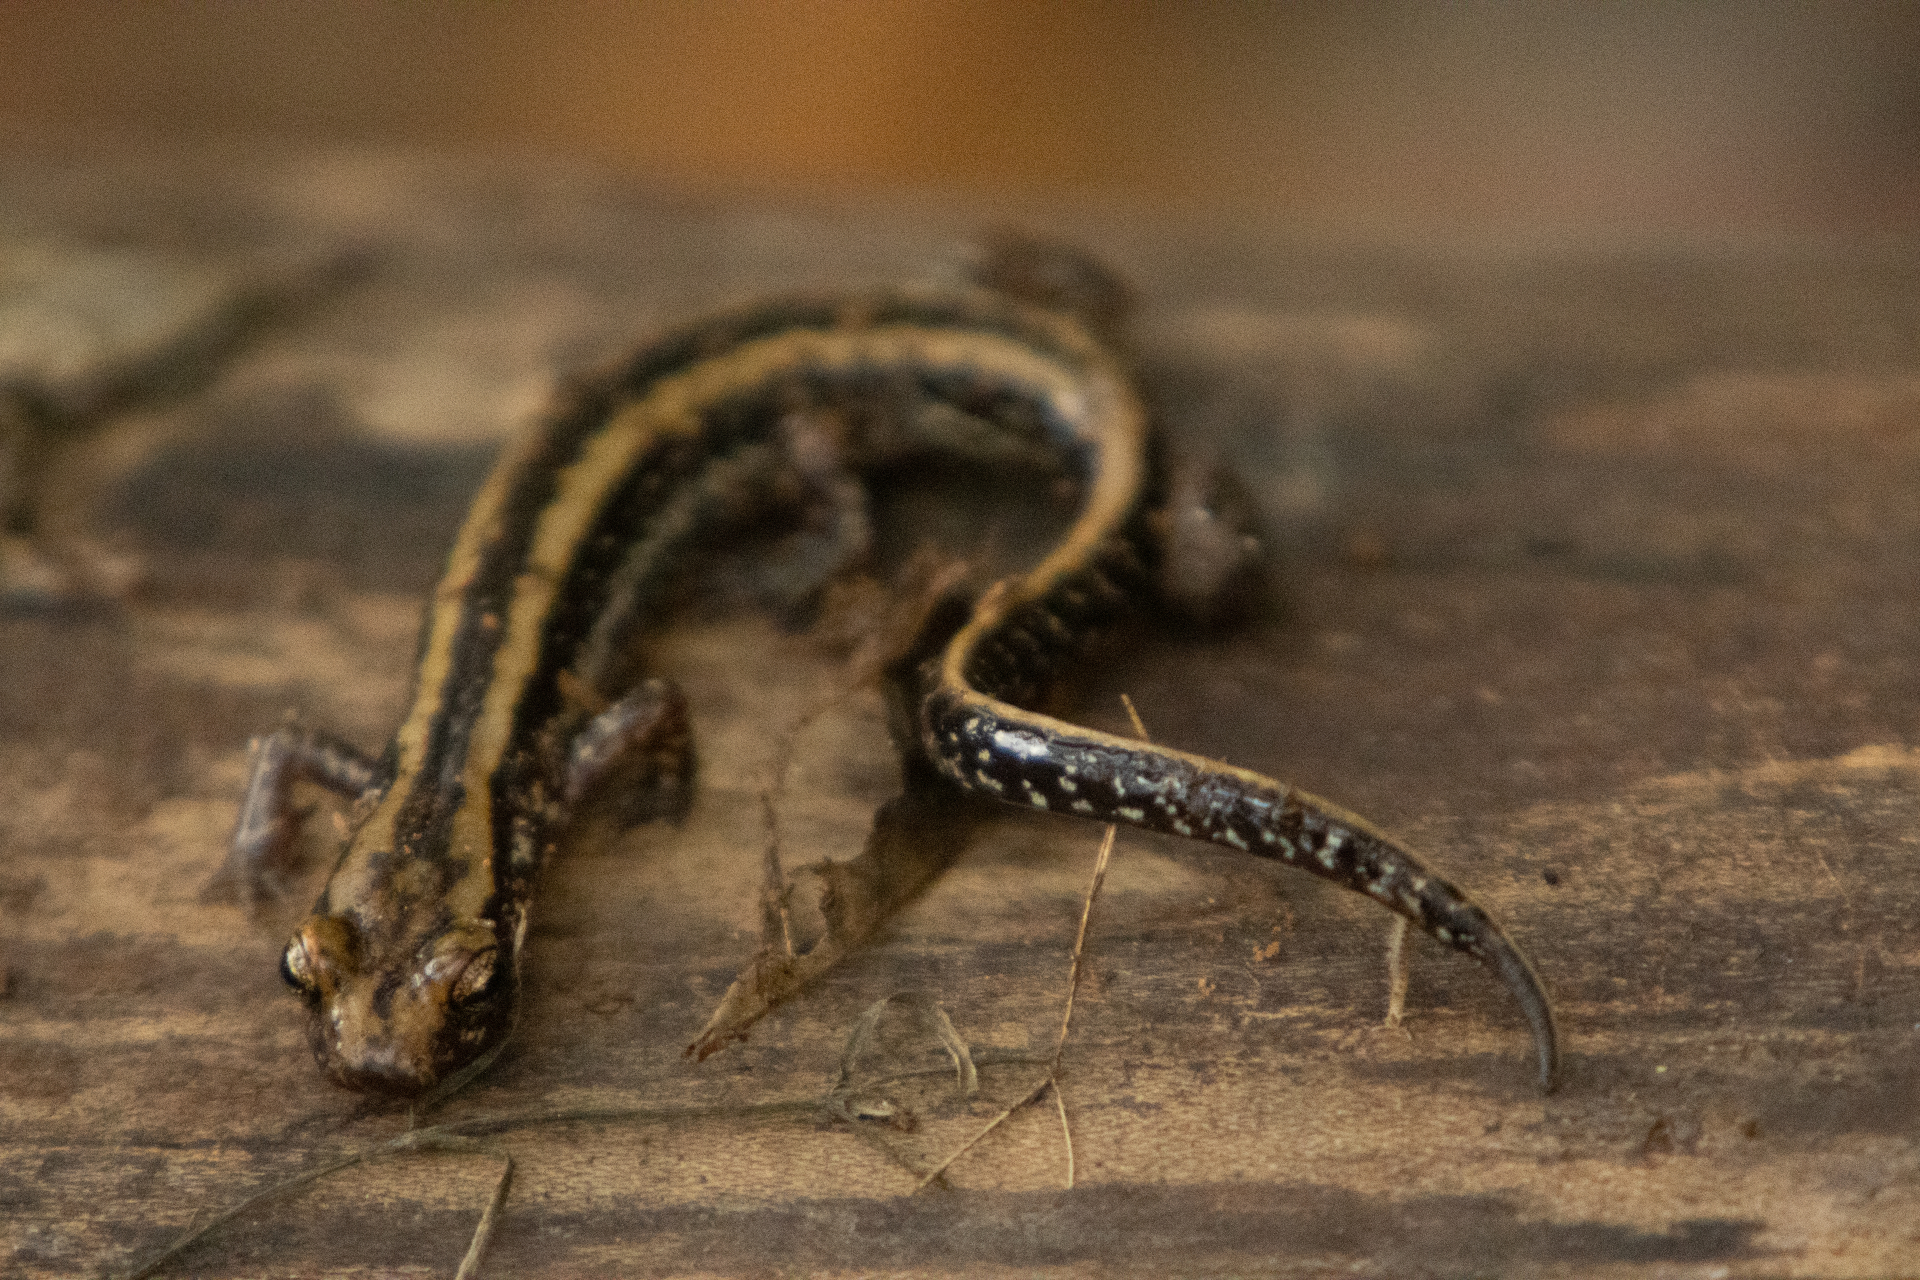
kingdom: Animalia
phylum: Chordata
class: Amphibia
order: Caudata
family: Plethodontidae
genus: Eurycea
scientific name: Eurycea guttolineata
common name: Three-lined salamander
